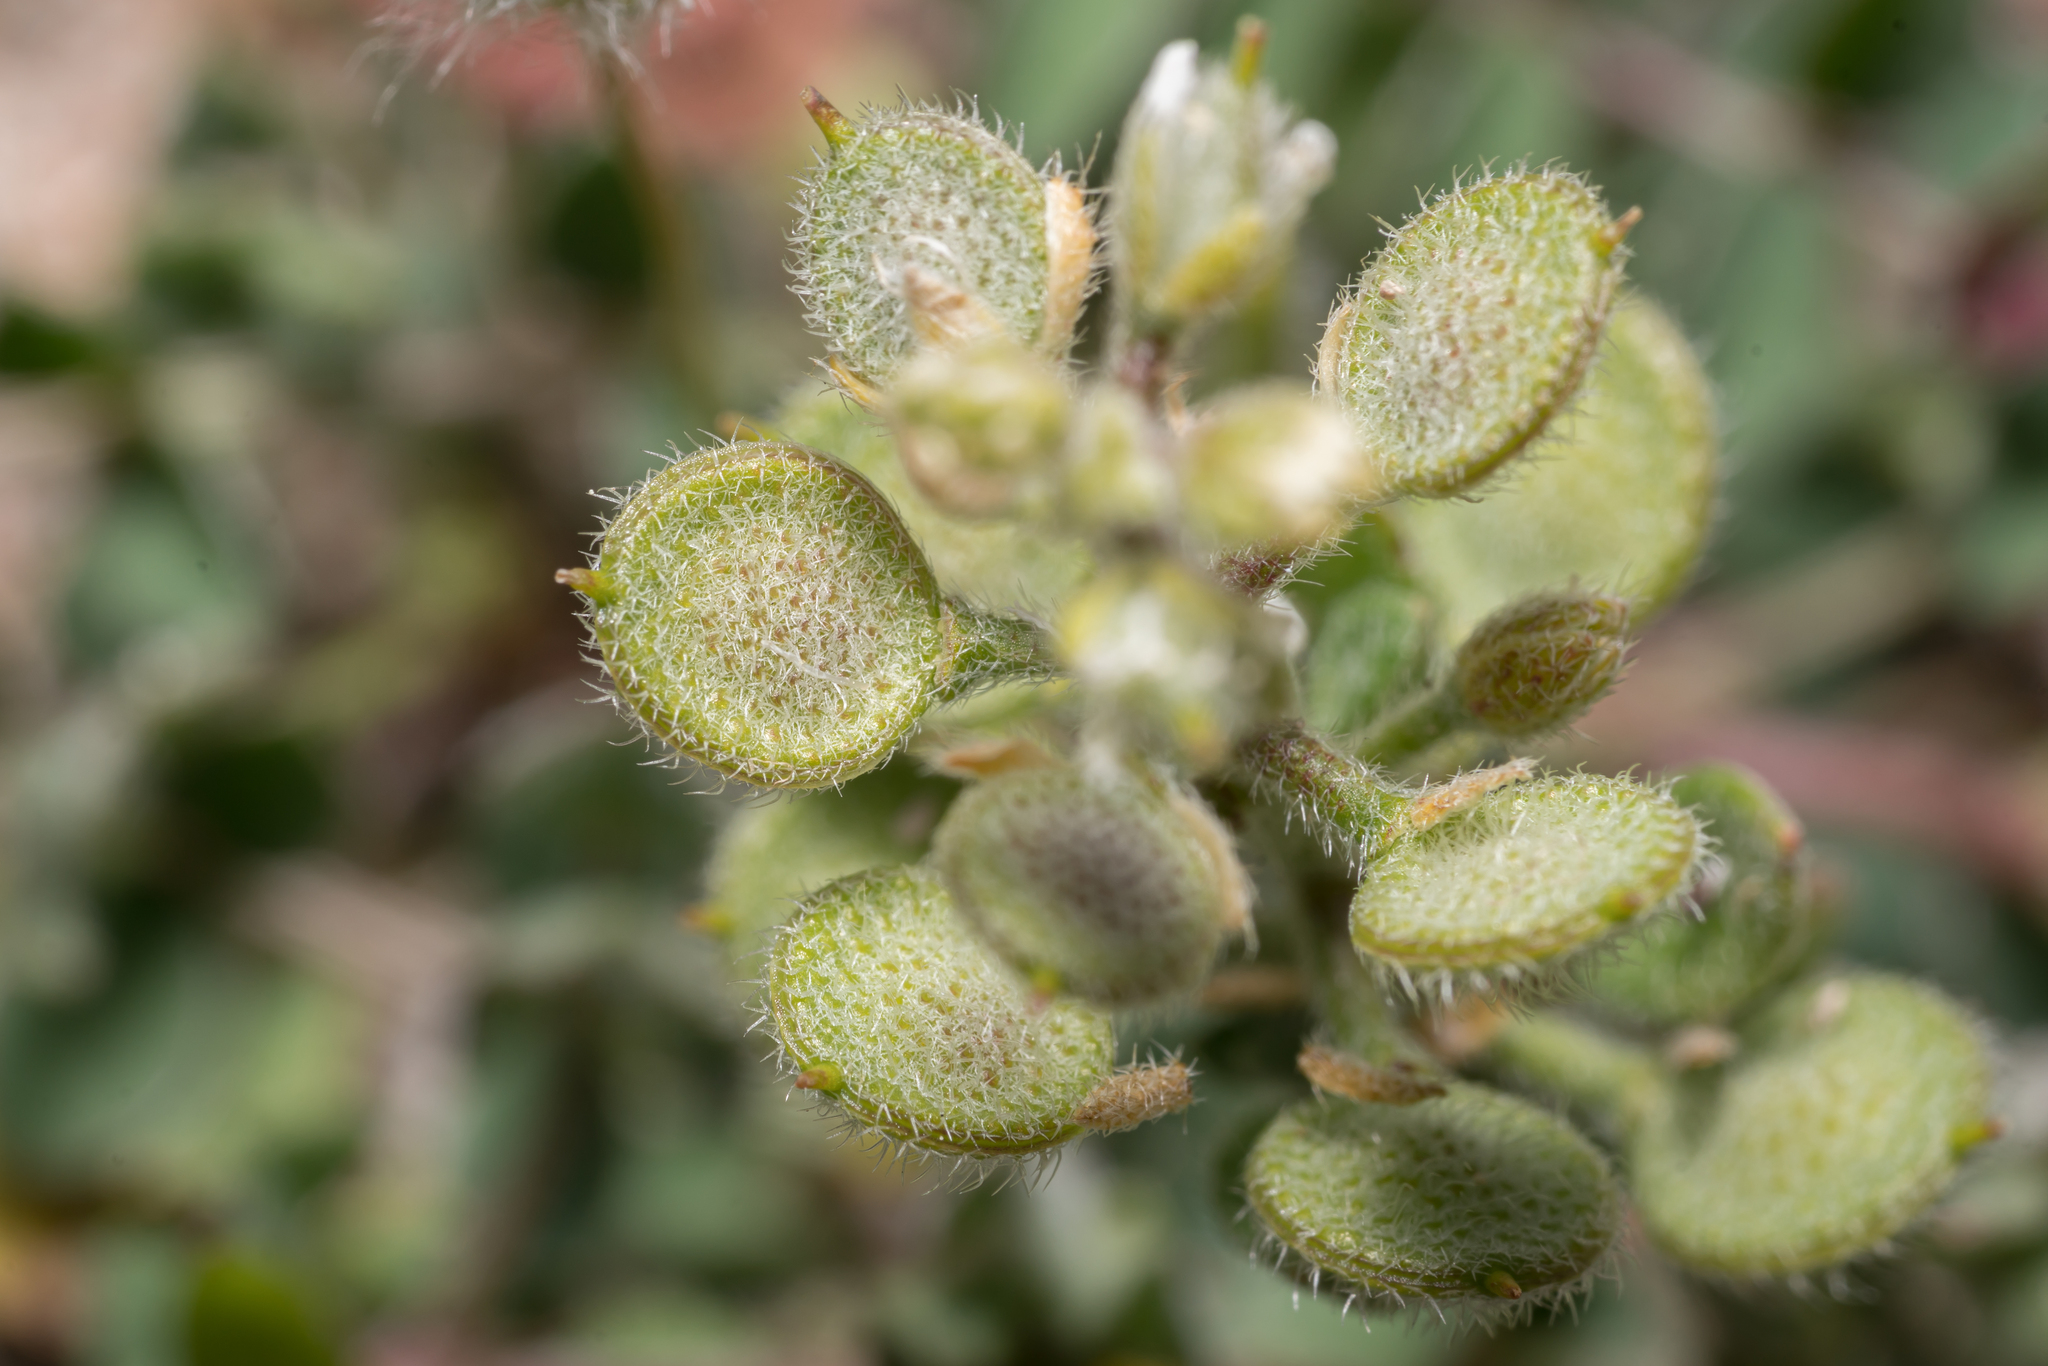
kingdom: Plantae
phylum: Tracheophyta
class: Magnoliopsida
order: Brassicales
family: Brassicaceae
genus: Alyssum
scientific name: Alyssum simplex
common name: Alyssum
